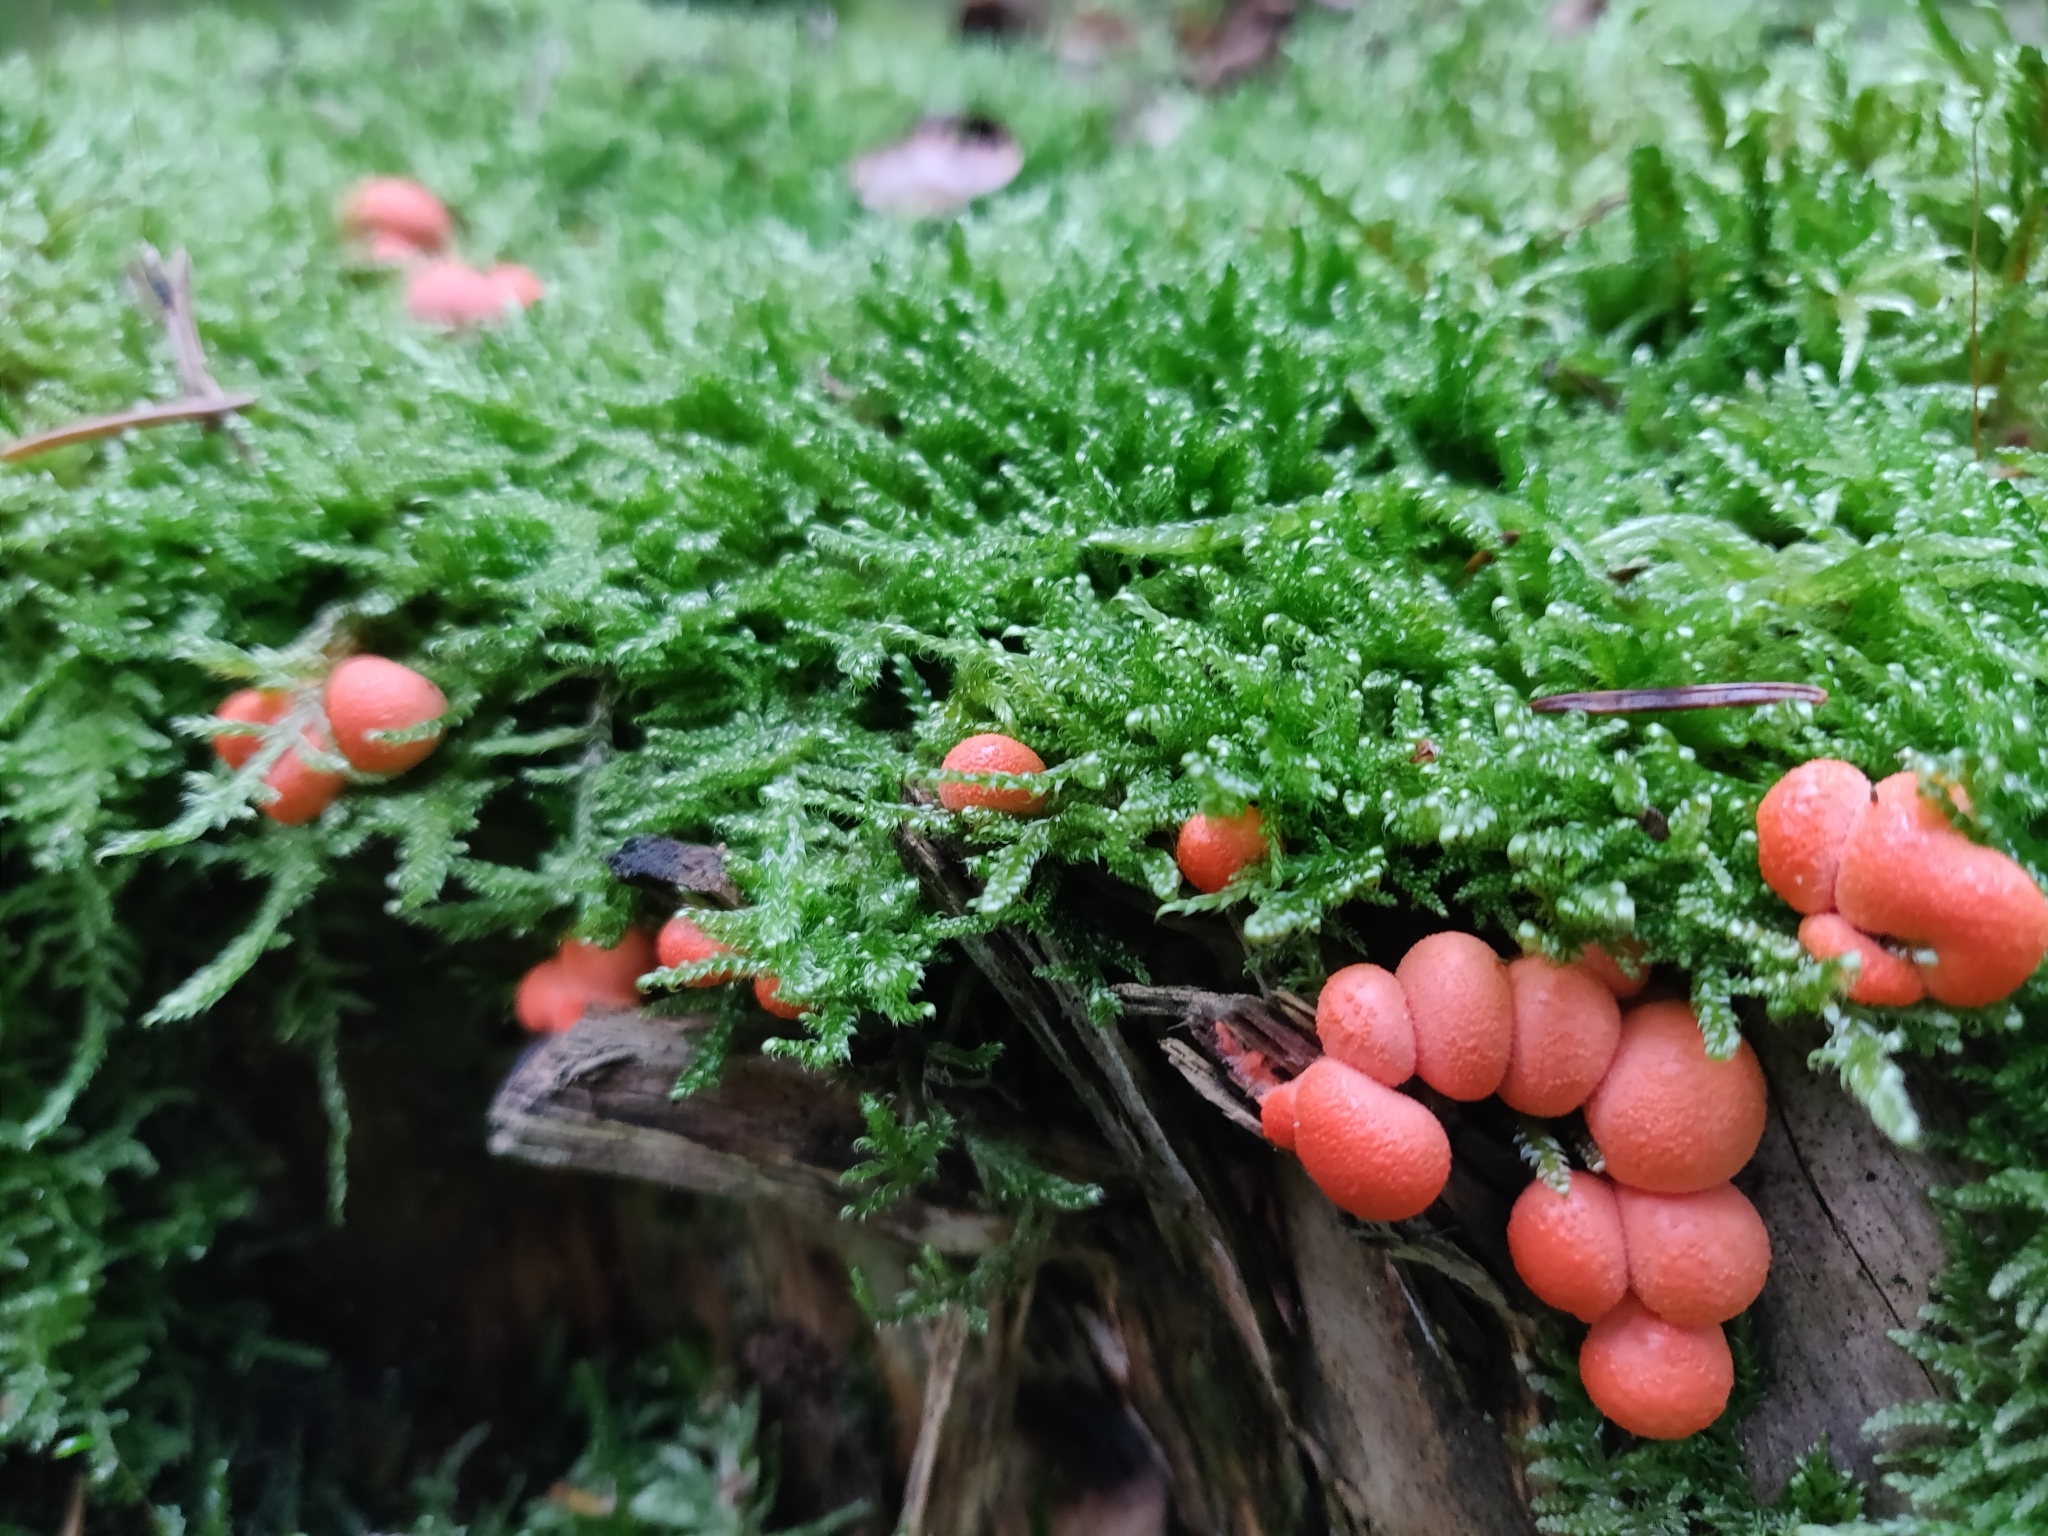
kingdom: Protozoa
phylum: Mycetozoa
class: Myxomycetes
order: Cribrariales
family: Tubiferaceae
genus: Lycogala
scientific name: Lycogala epidendrum
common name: Wolf's milk
